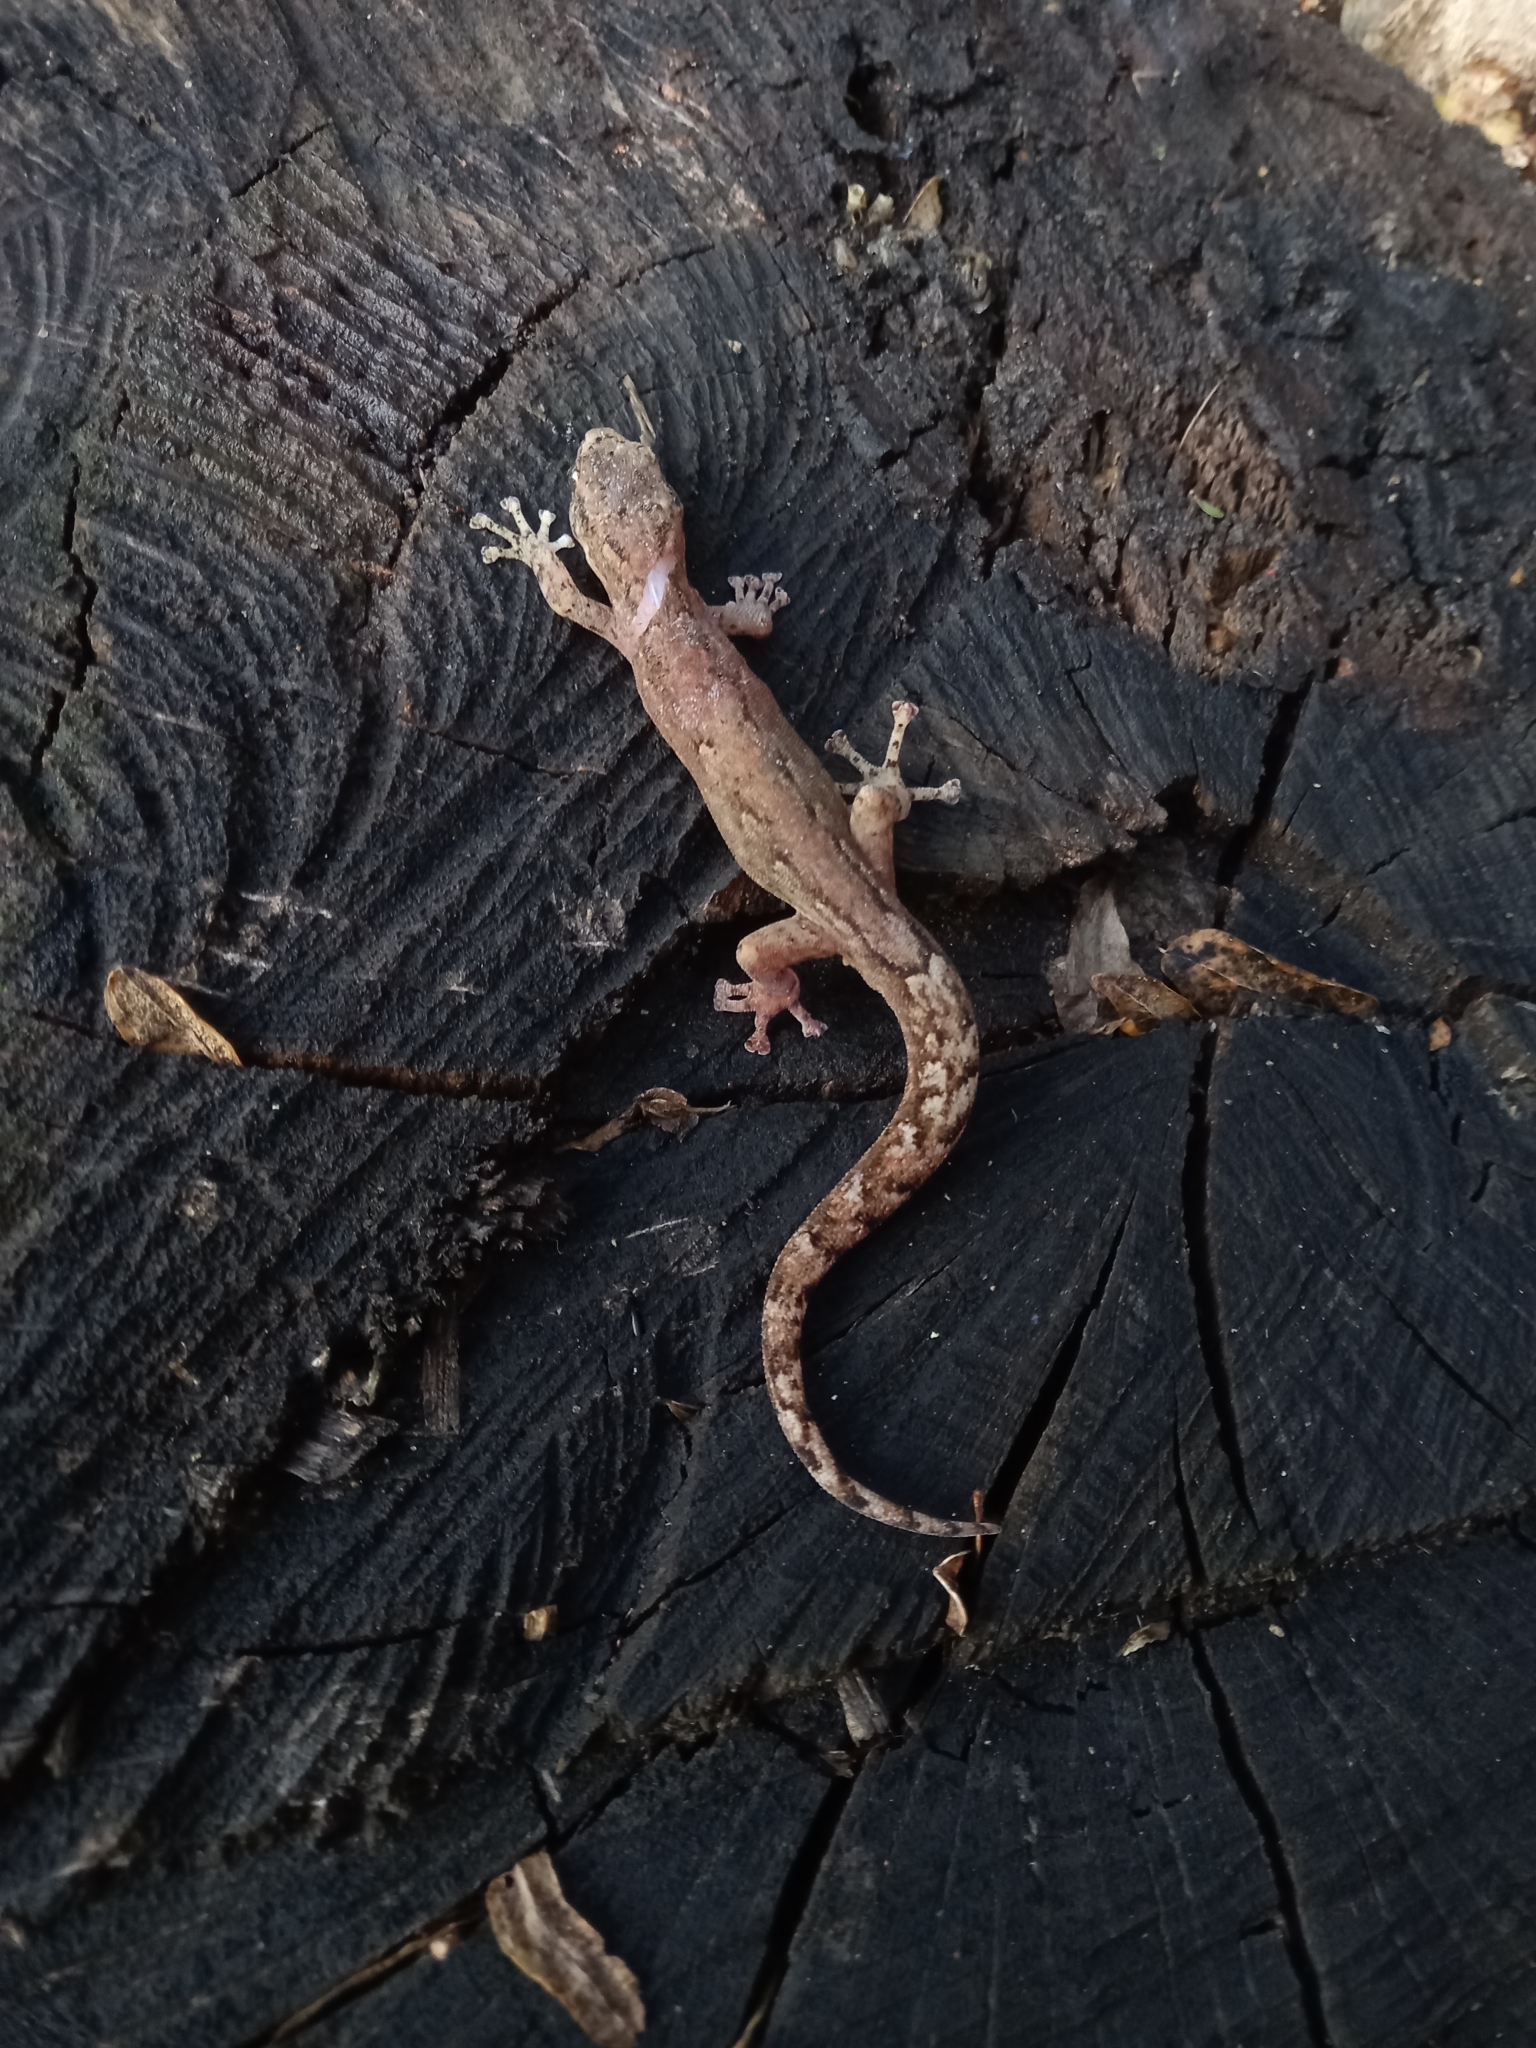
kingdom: Animalia
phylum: Chordata
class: Squamata
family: Gekkonidae
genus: Afrogecko
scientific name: Afrogecko porphyreus
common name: Marbled leaf-toed gecko
